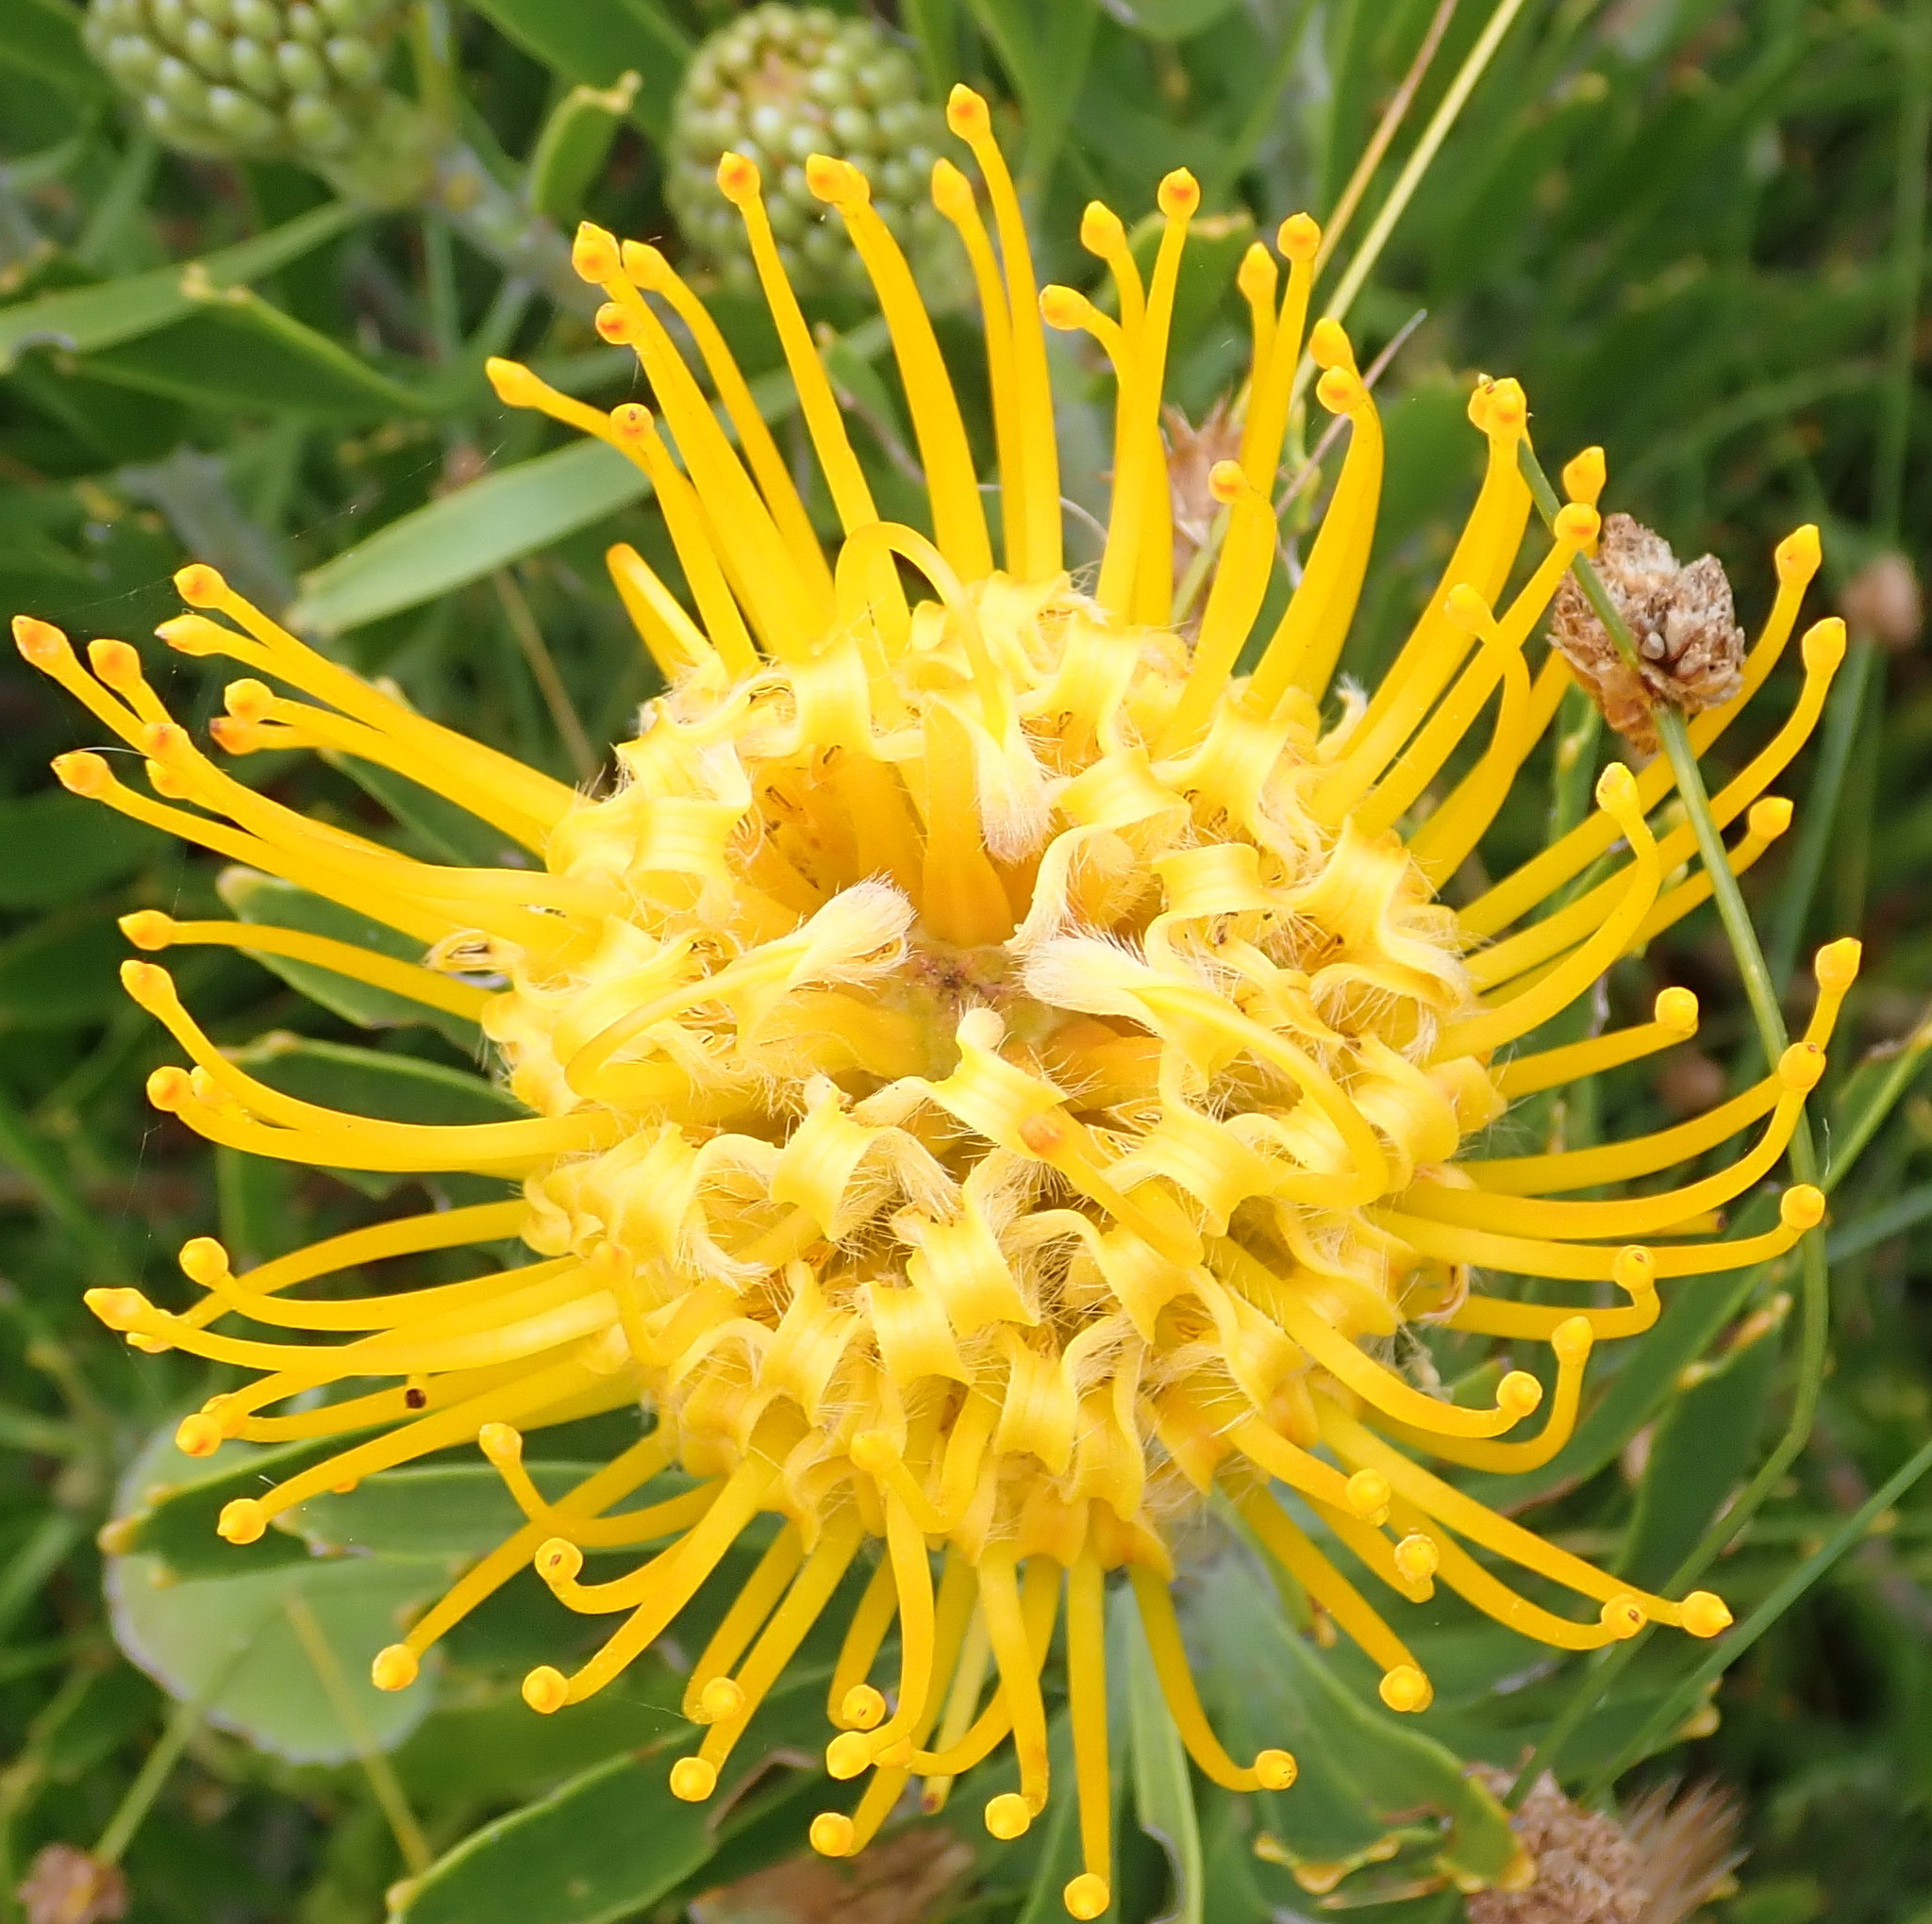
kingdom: Plantae
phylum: Tracheophyta
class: Magnoliopsida
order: Proteales
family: Proteaceae
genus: Leucospermum
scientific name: Leucospermum cuneiforme
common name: Common pincushion
